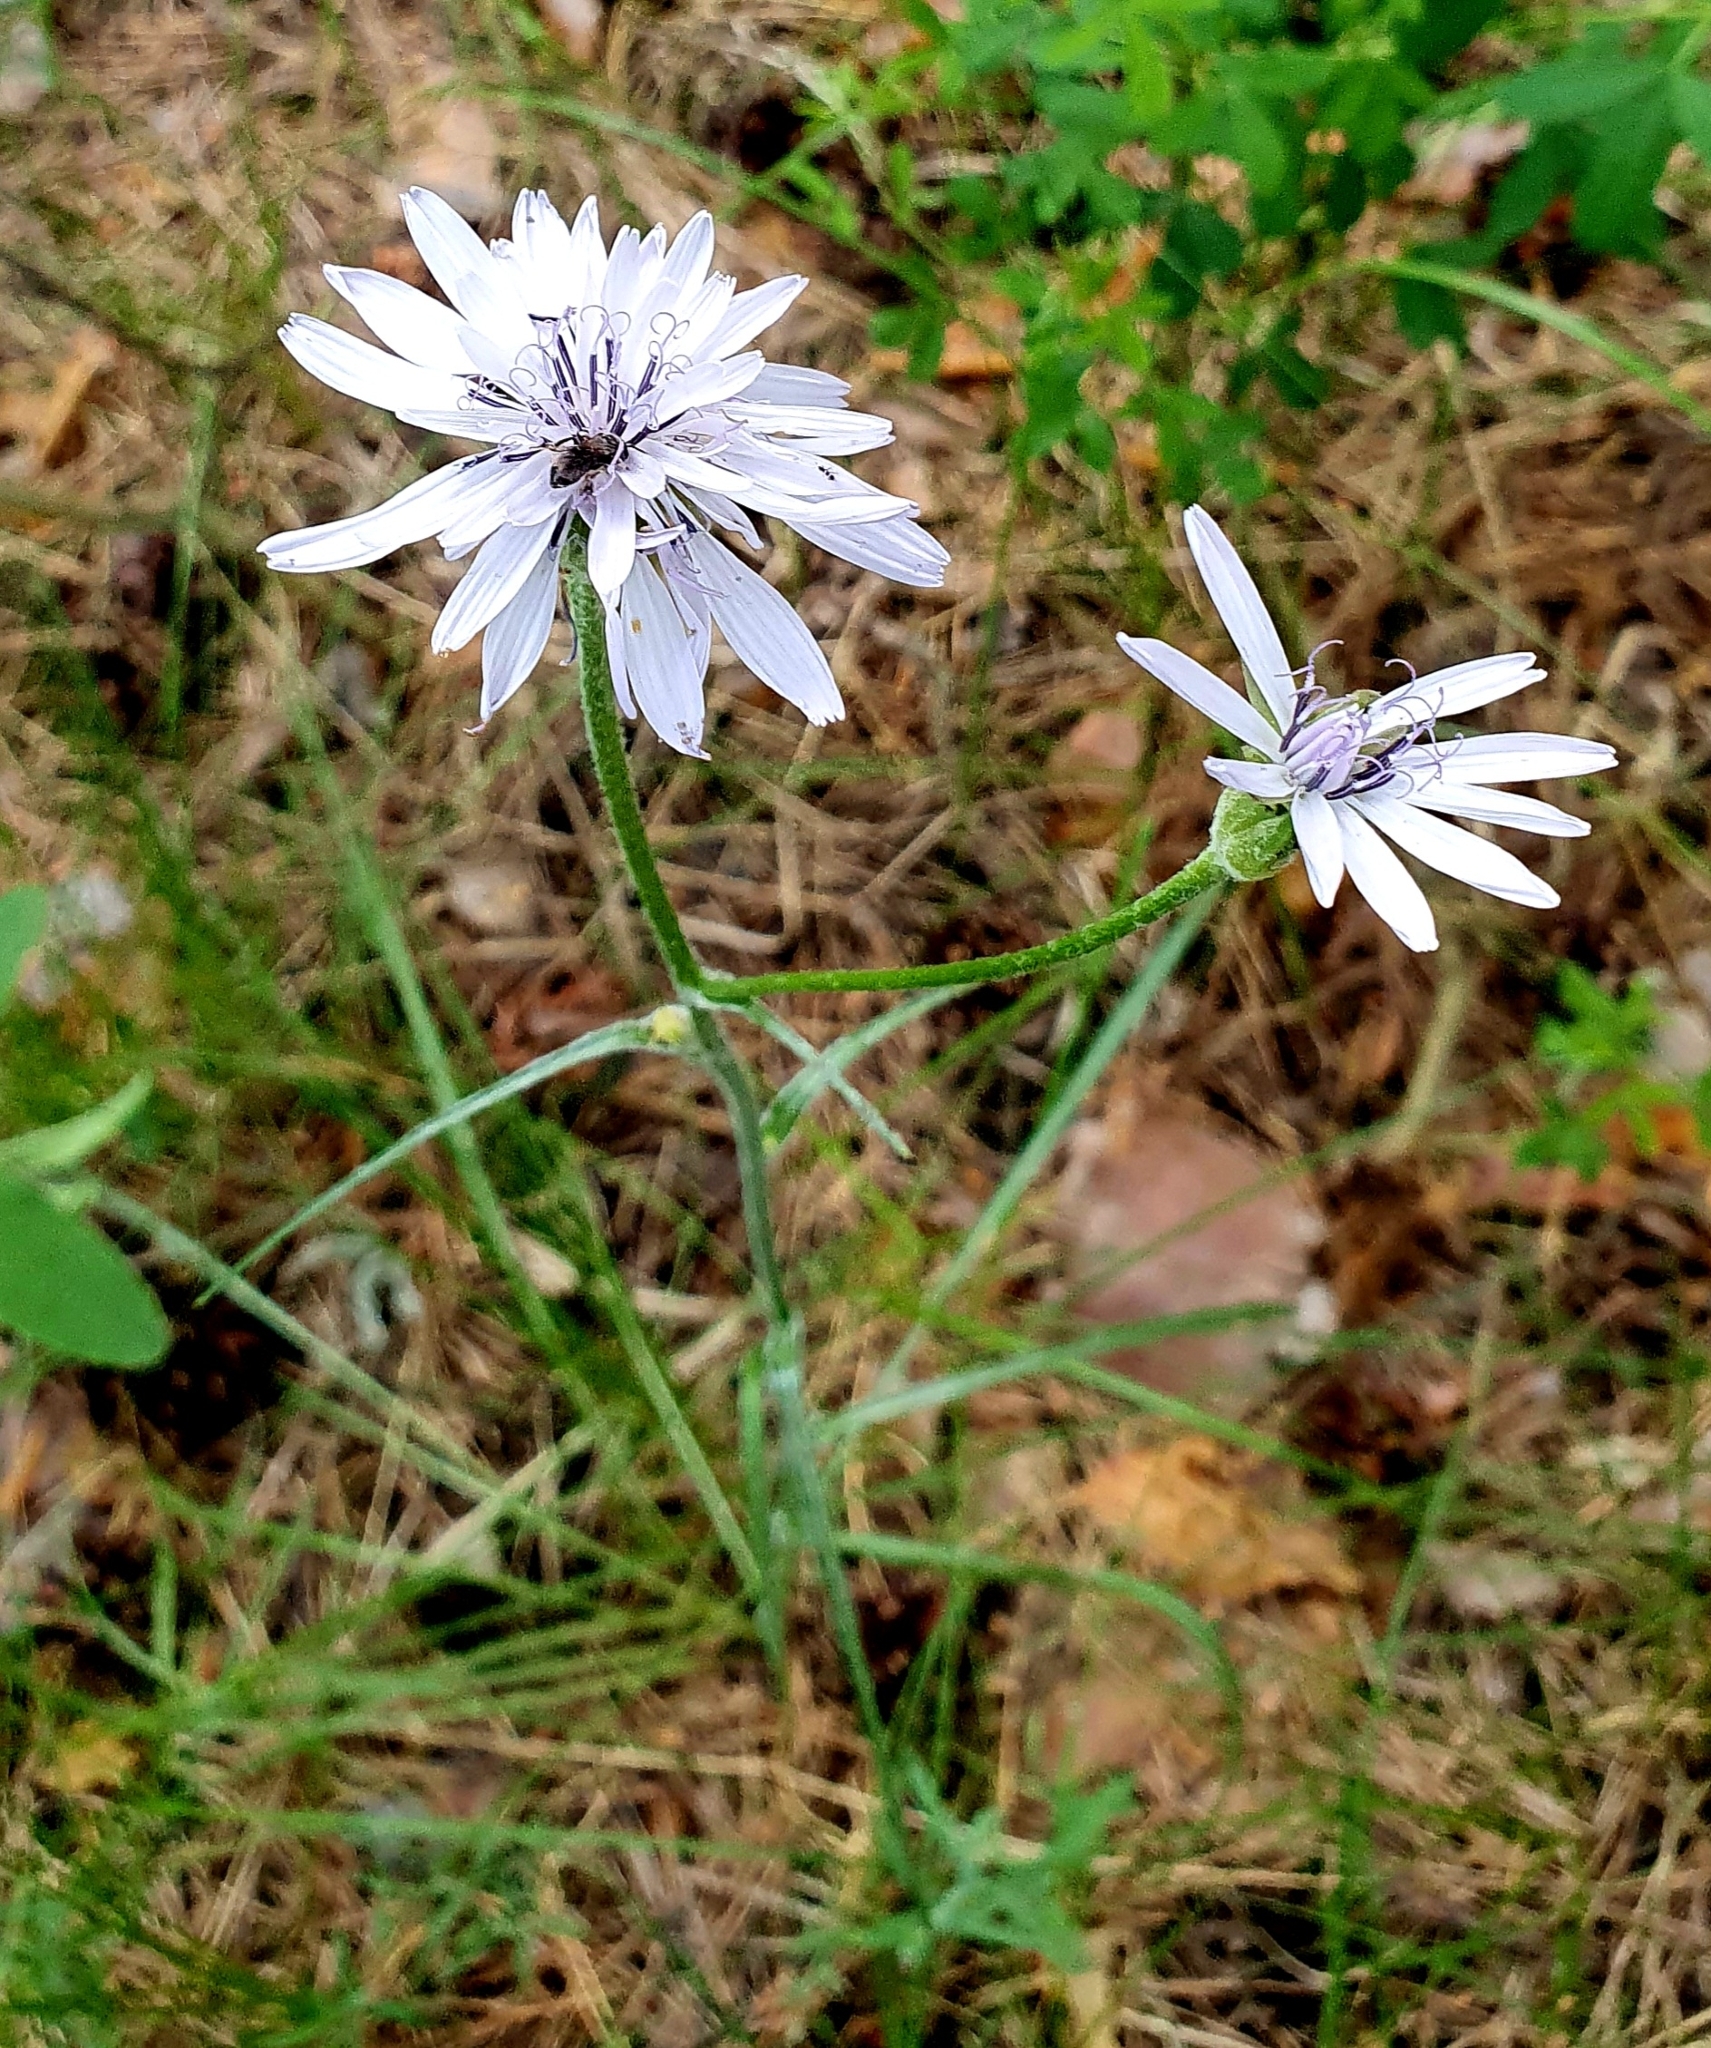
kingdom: Plantae
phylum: Tracheophyta
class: Magnoliopsida
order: Asterales
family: Asteraceae
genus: Scorzonera
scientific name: Scorzonera purpurea
